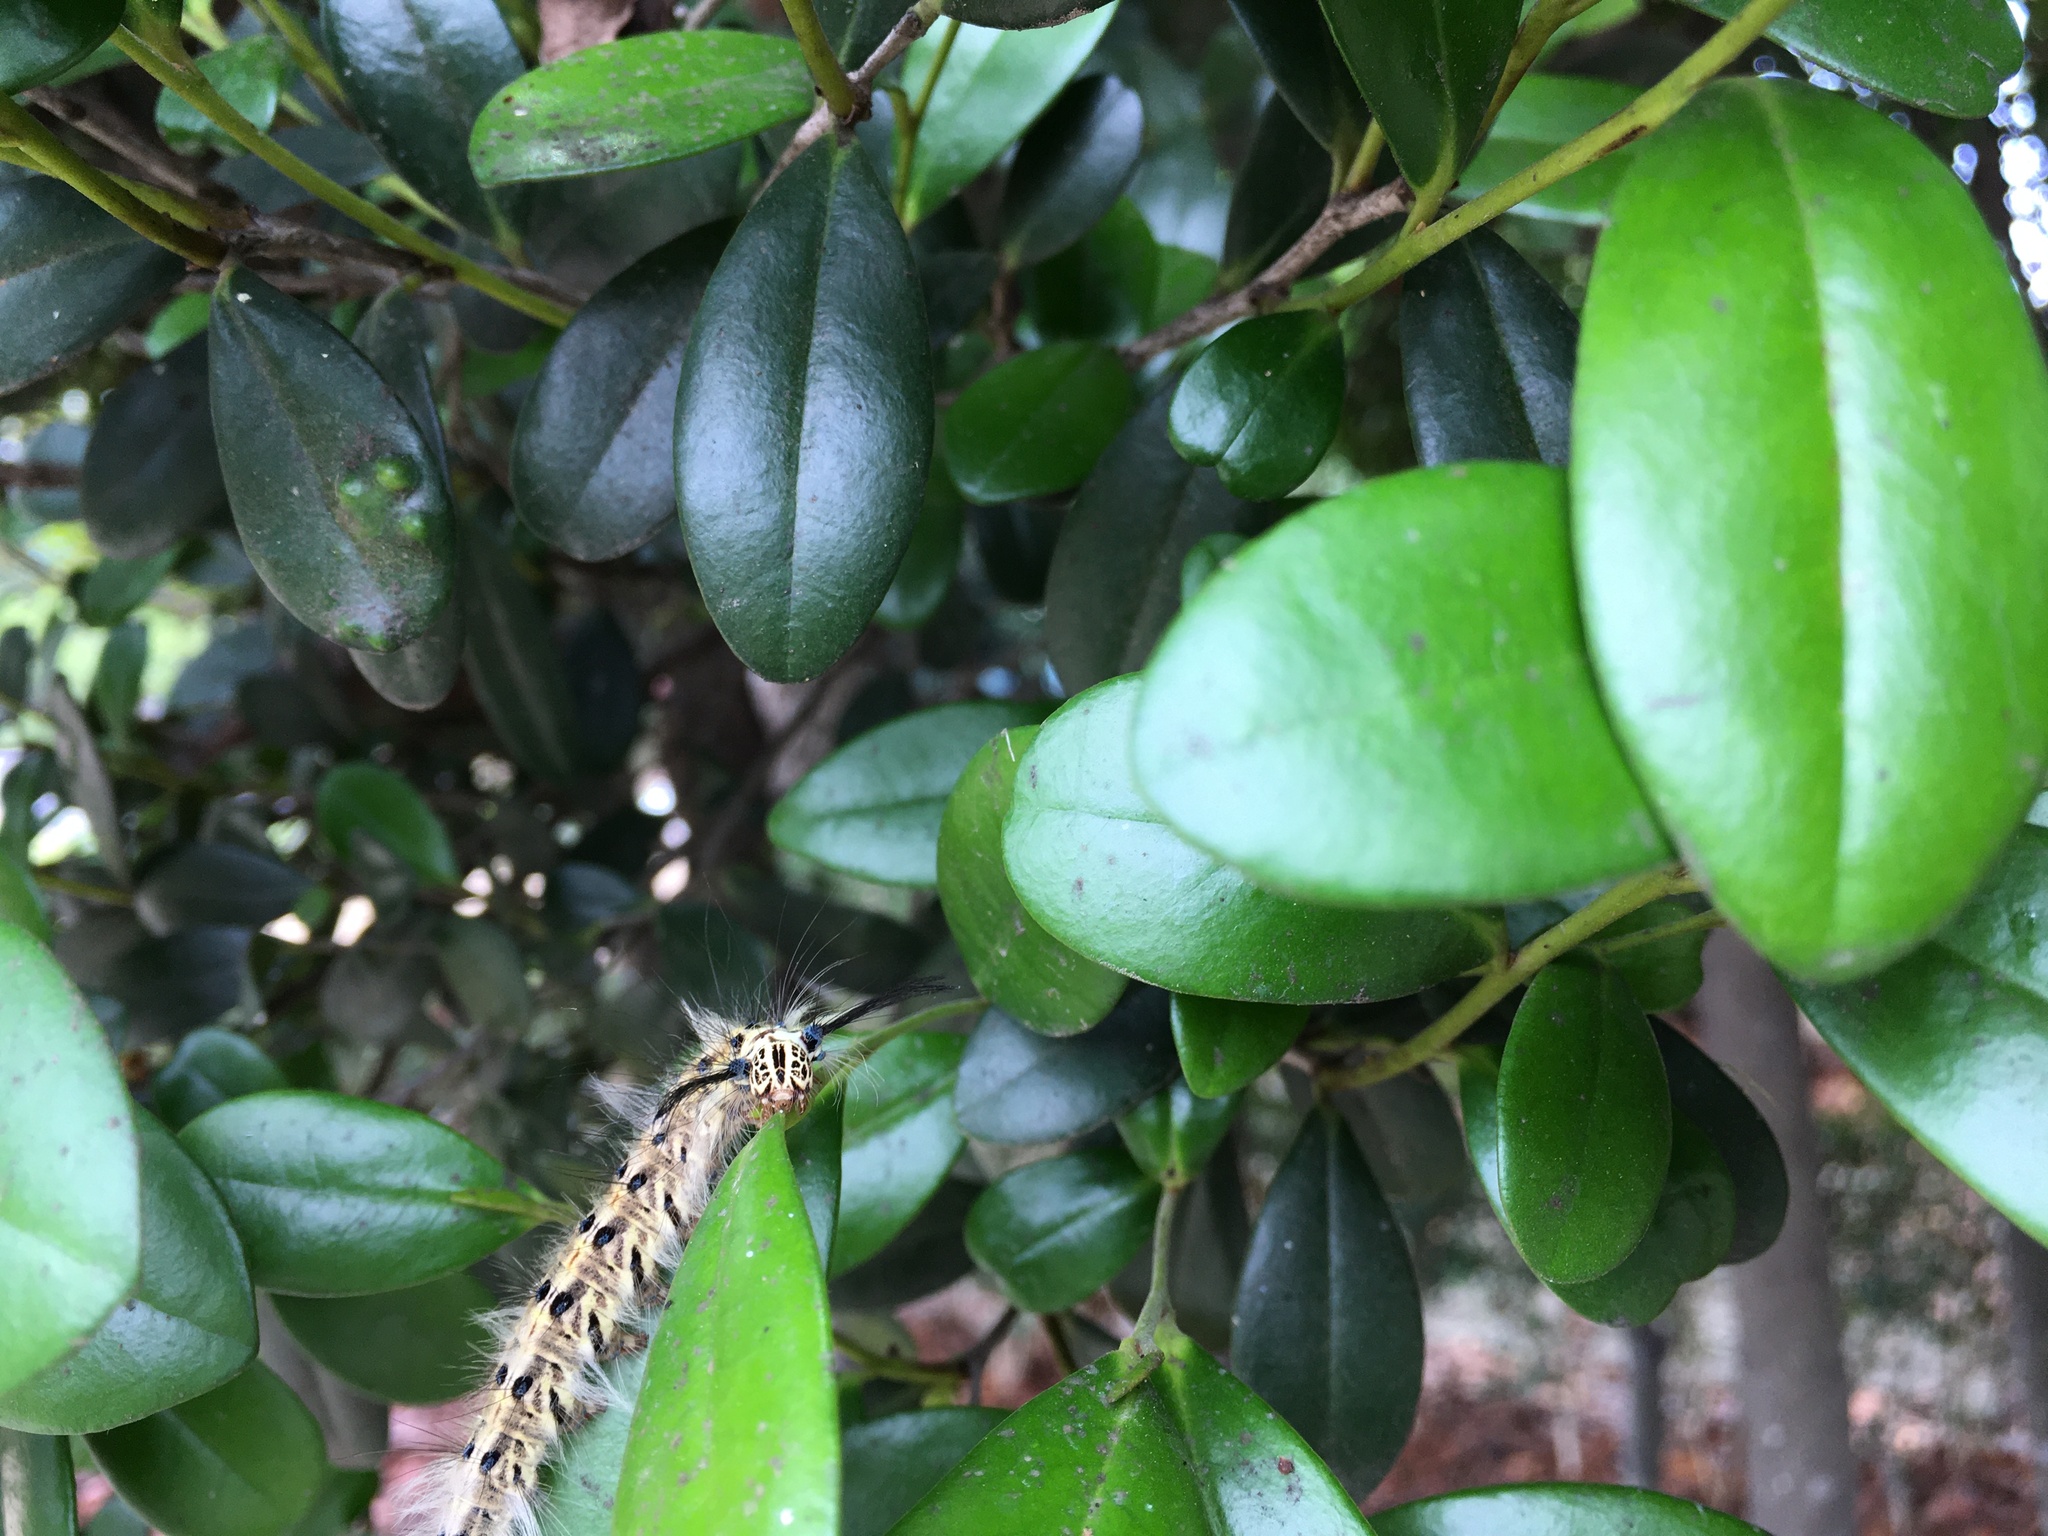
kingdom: Animalia
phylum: Arthropoda
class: Insecta
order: Lepidoptera
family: Lasiocampidae
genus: Trabala
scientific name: Trabala vishnou
